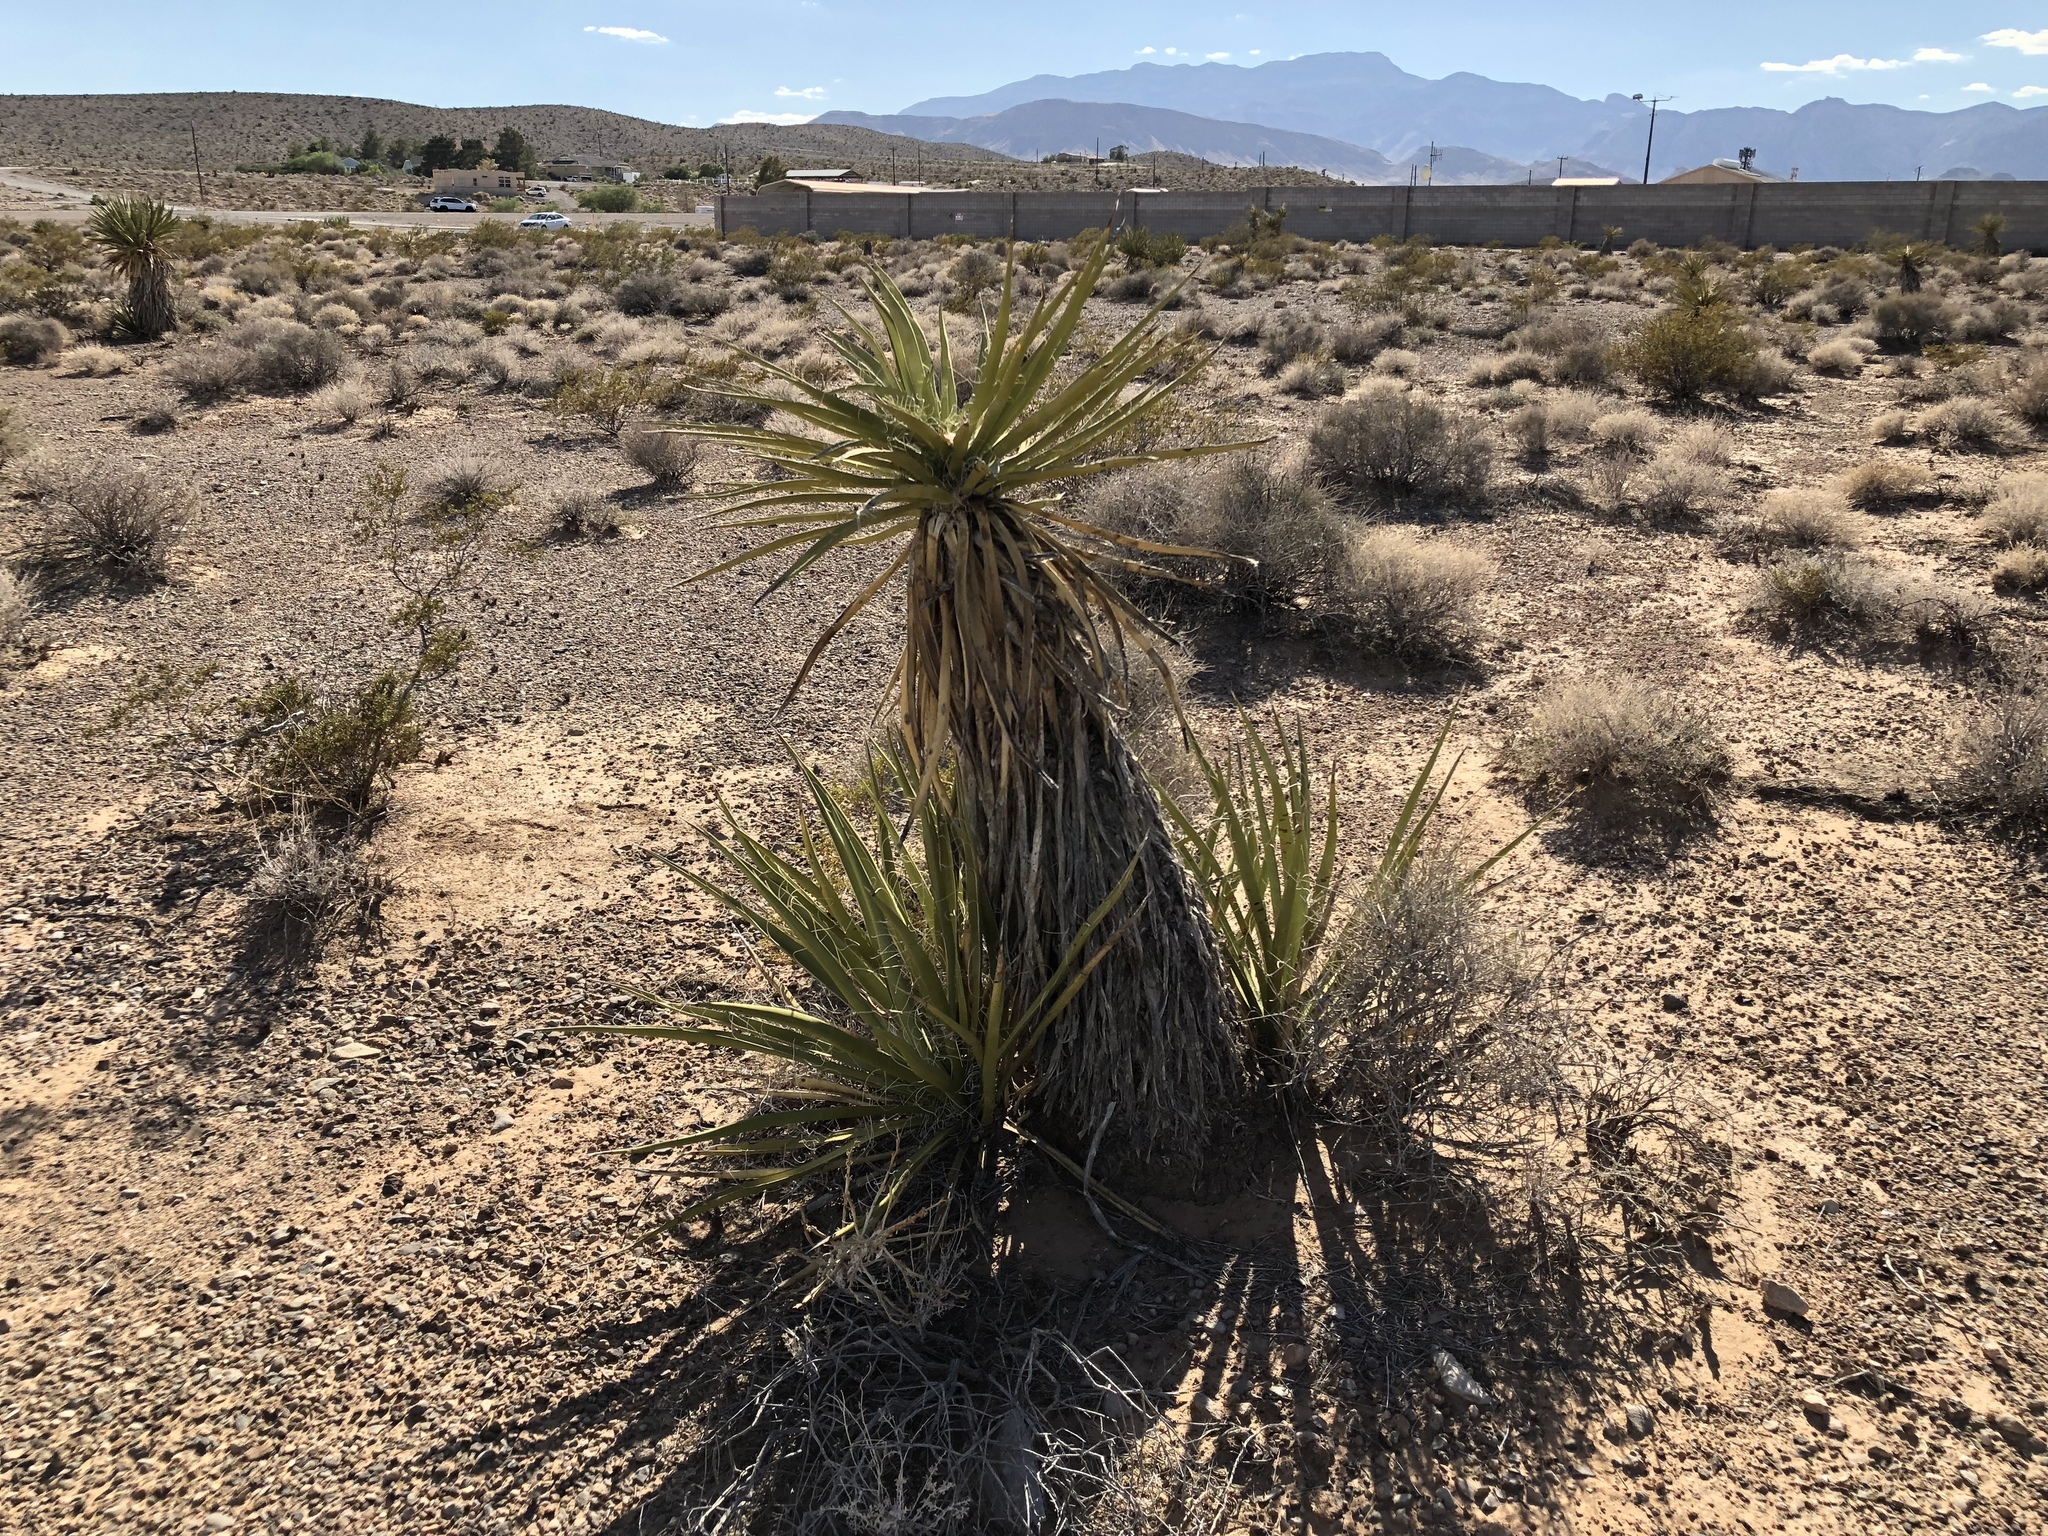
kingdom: Plantae
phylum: Tracheophyta
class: Liliopsida
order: Asparagales
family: Asparagaceae
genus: Yucca
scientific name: Yucca schidigera
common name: Mojave yucca
